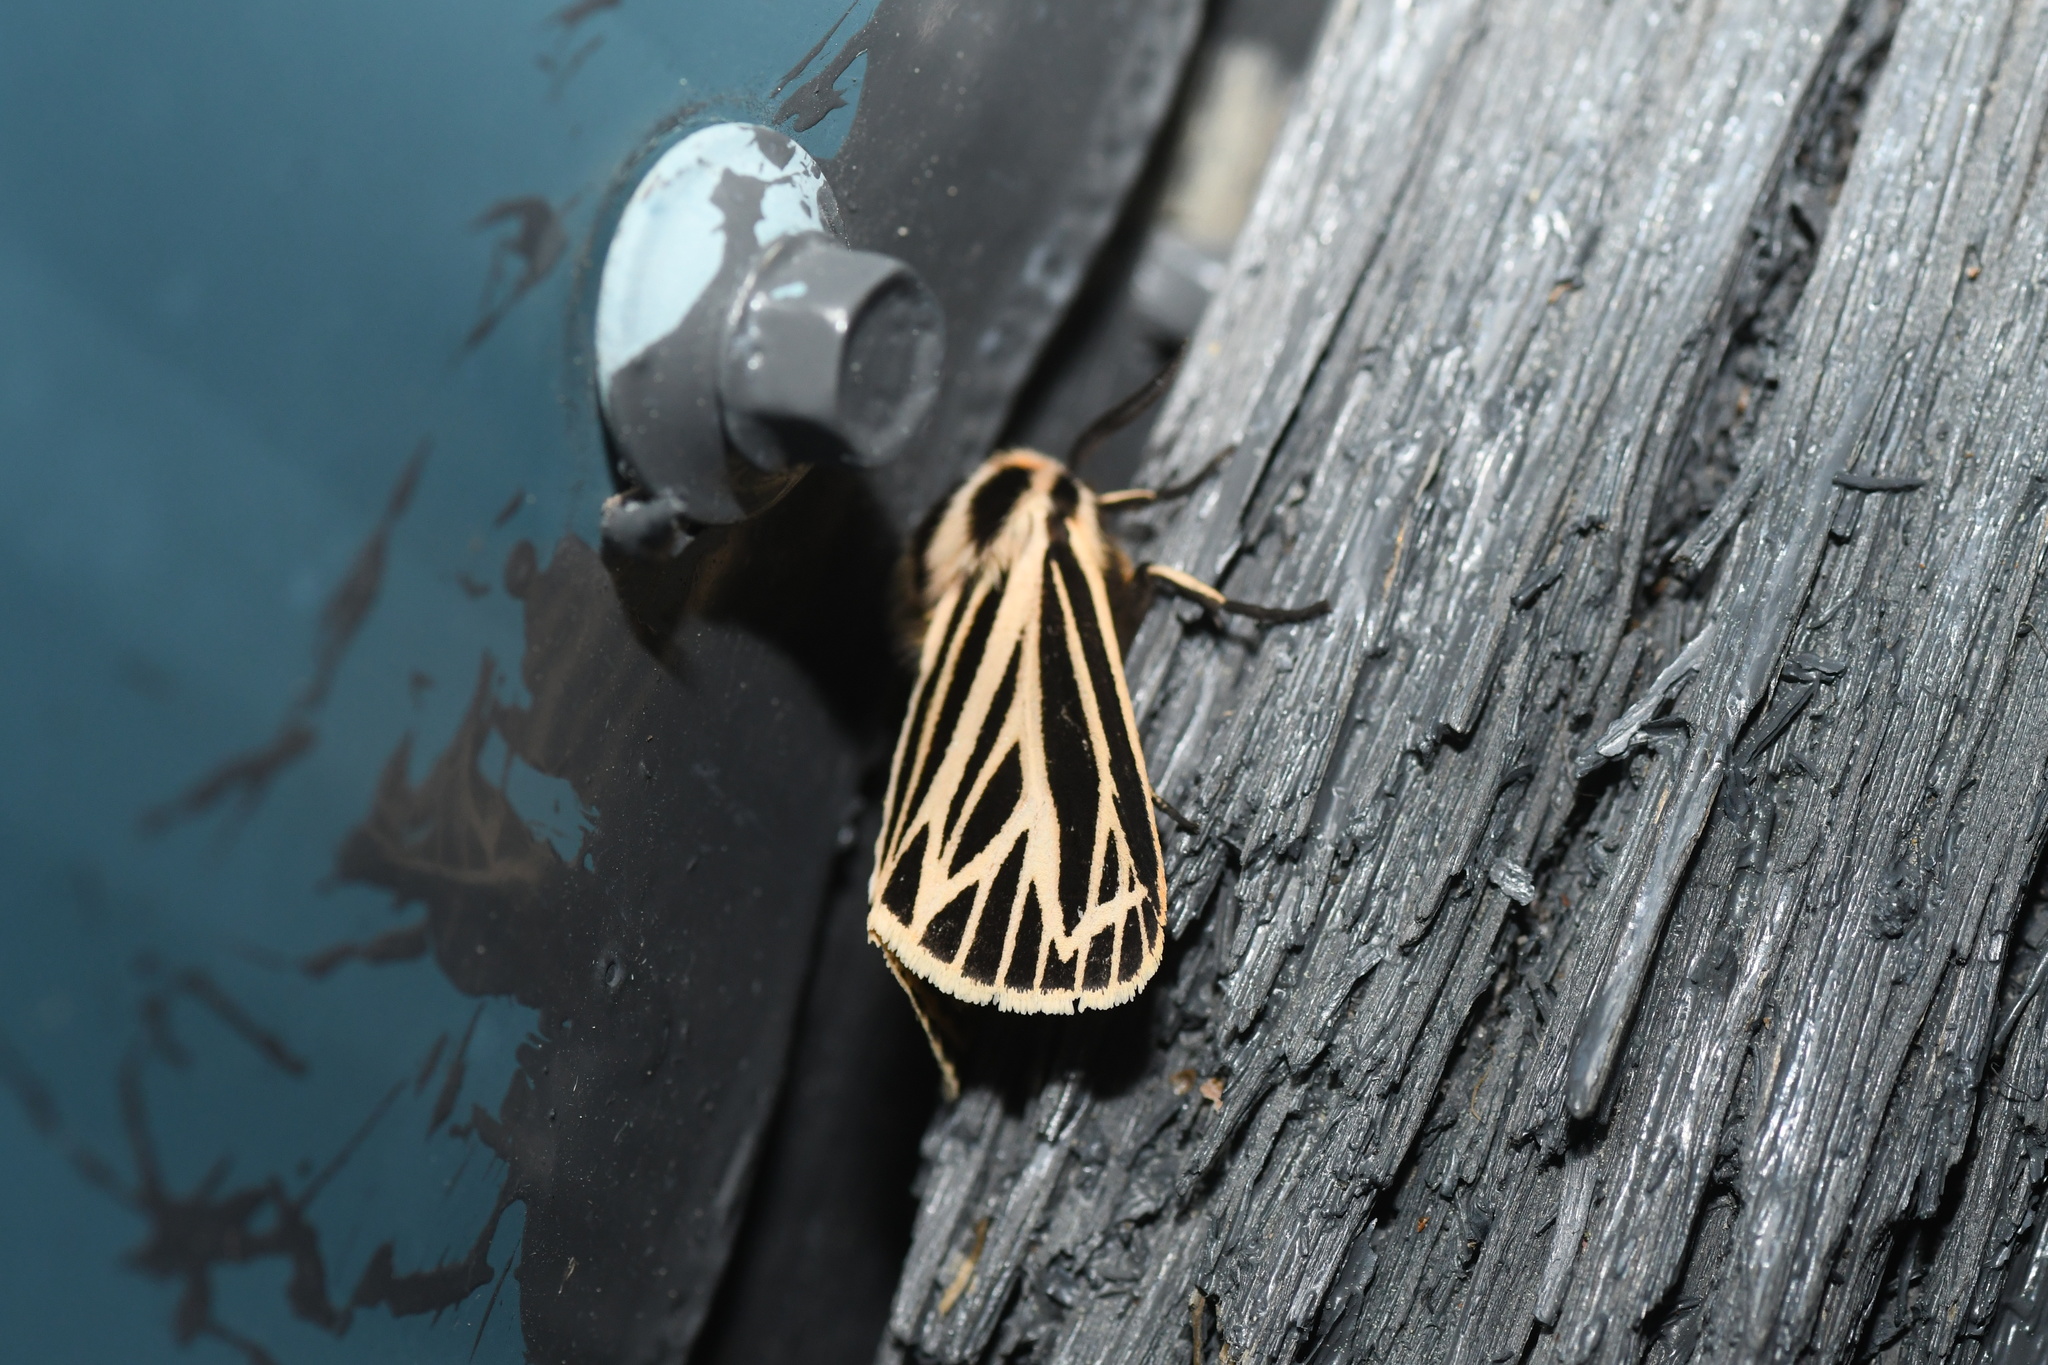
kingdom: Animalia
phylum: Arthropoda
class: Insecta
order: Lepidoptera
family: Erebidae
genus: Grammia
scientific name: Grammia virguncula
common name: Little tiger moth
